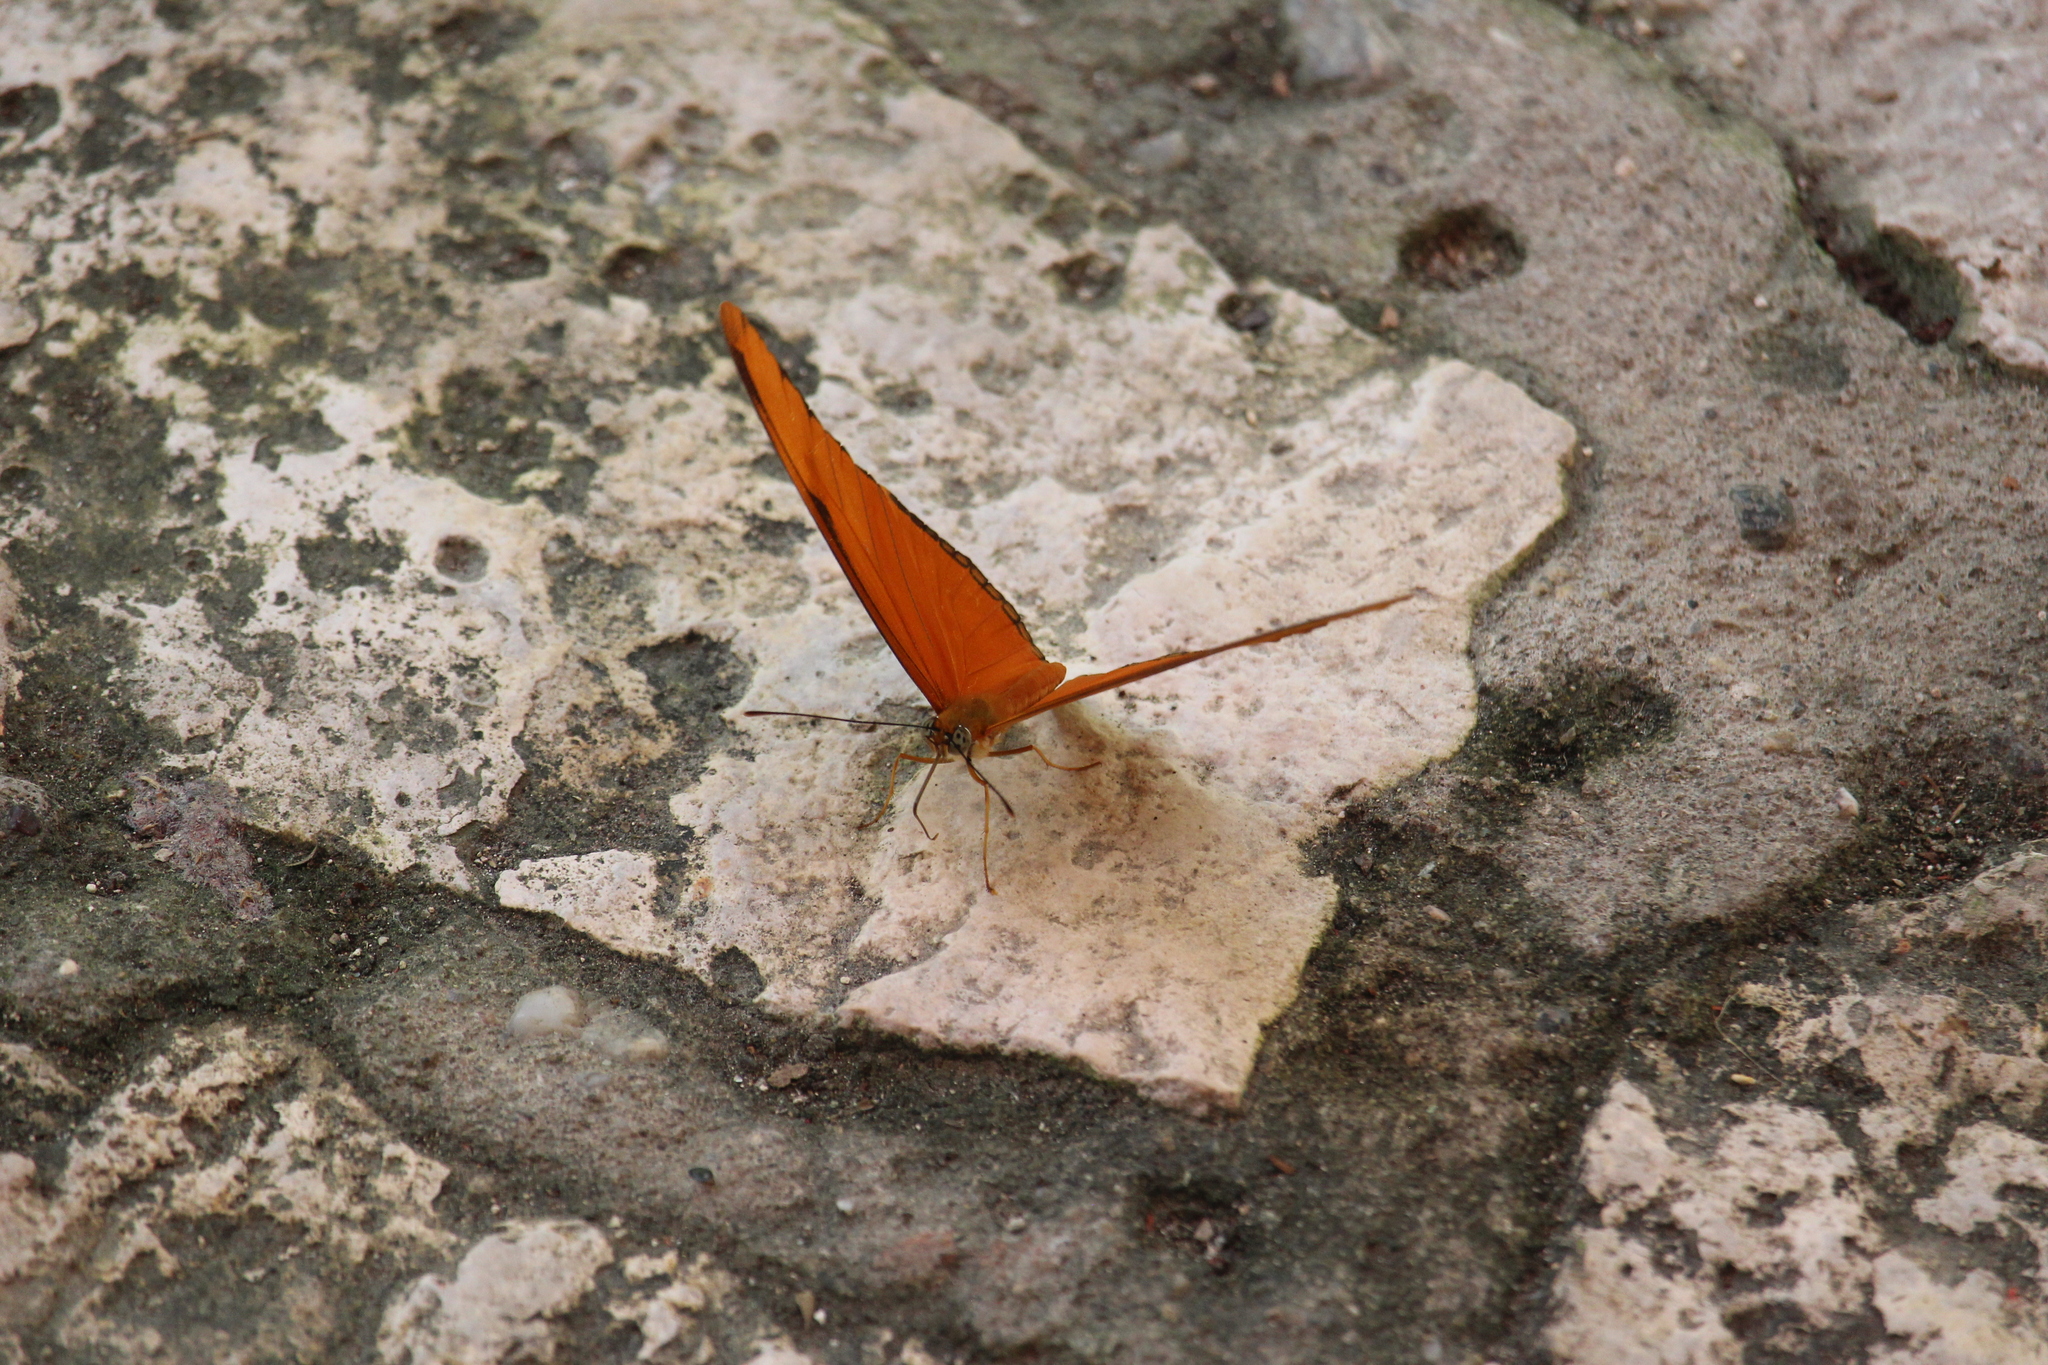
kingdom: Animalia
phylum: Arthropoda
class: Insecta
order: Lepidoptera
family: Nymphalidae
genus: Dryas
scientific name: Dryas iulia
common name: Flambeau
